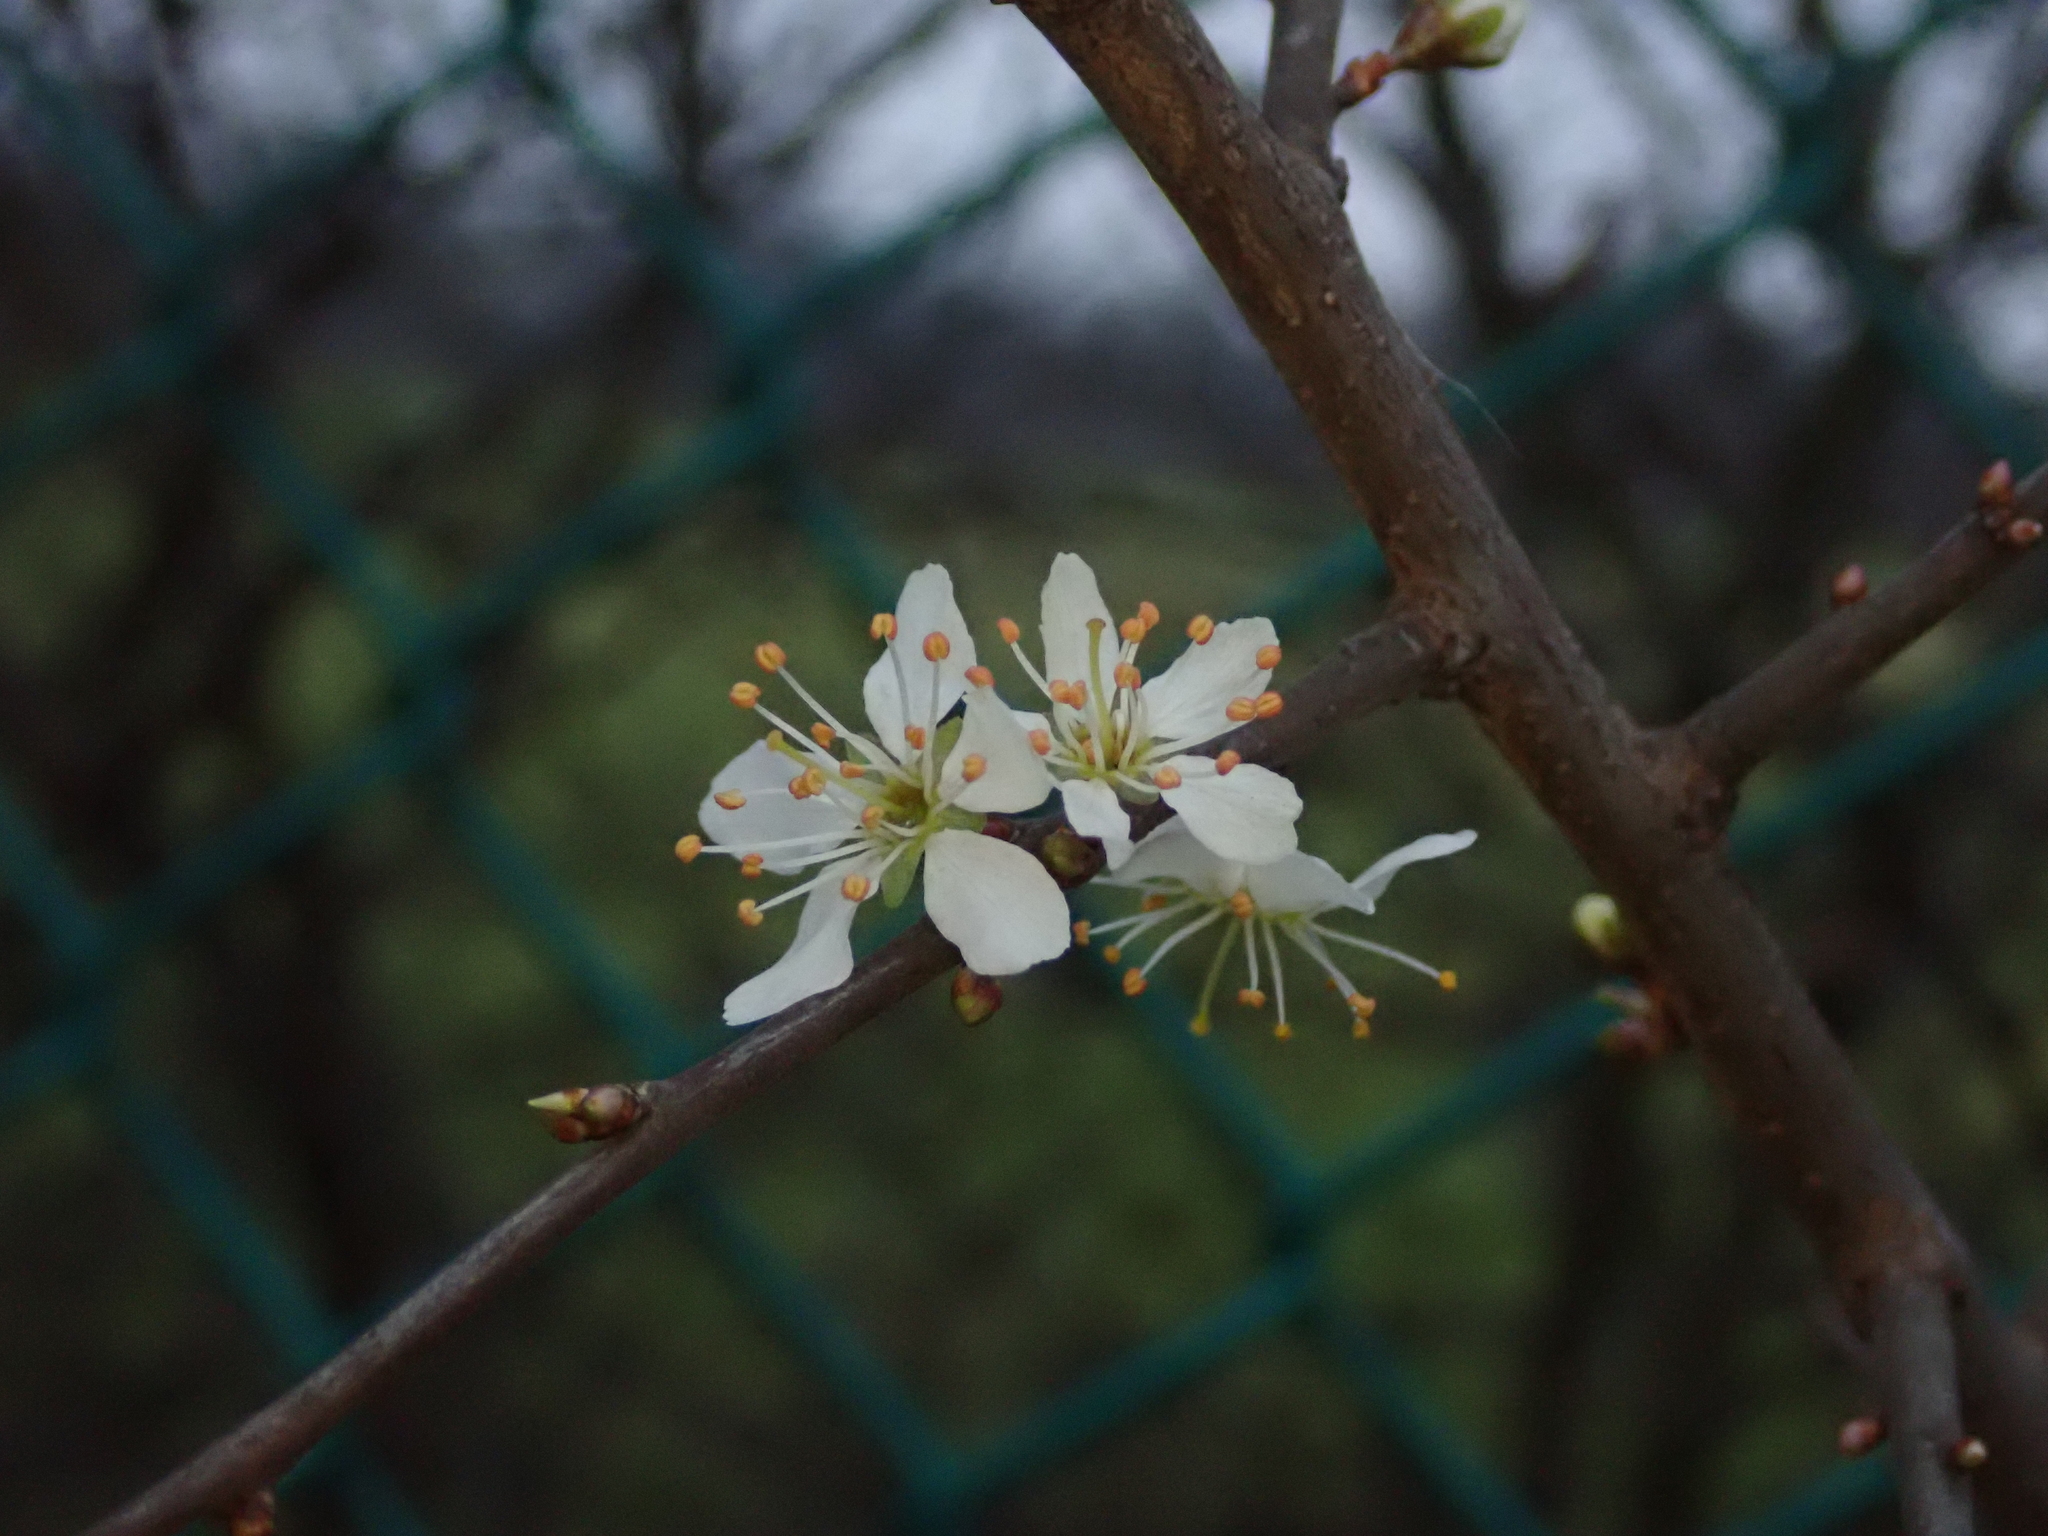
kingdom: Plantae
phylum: Tracheophyta
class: Magnoliopsida
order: Rosales
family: Rosaceae
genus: Prunus
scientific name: Prunus spinosa
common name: Blackthorn
